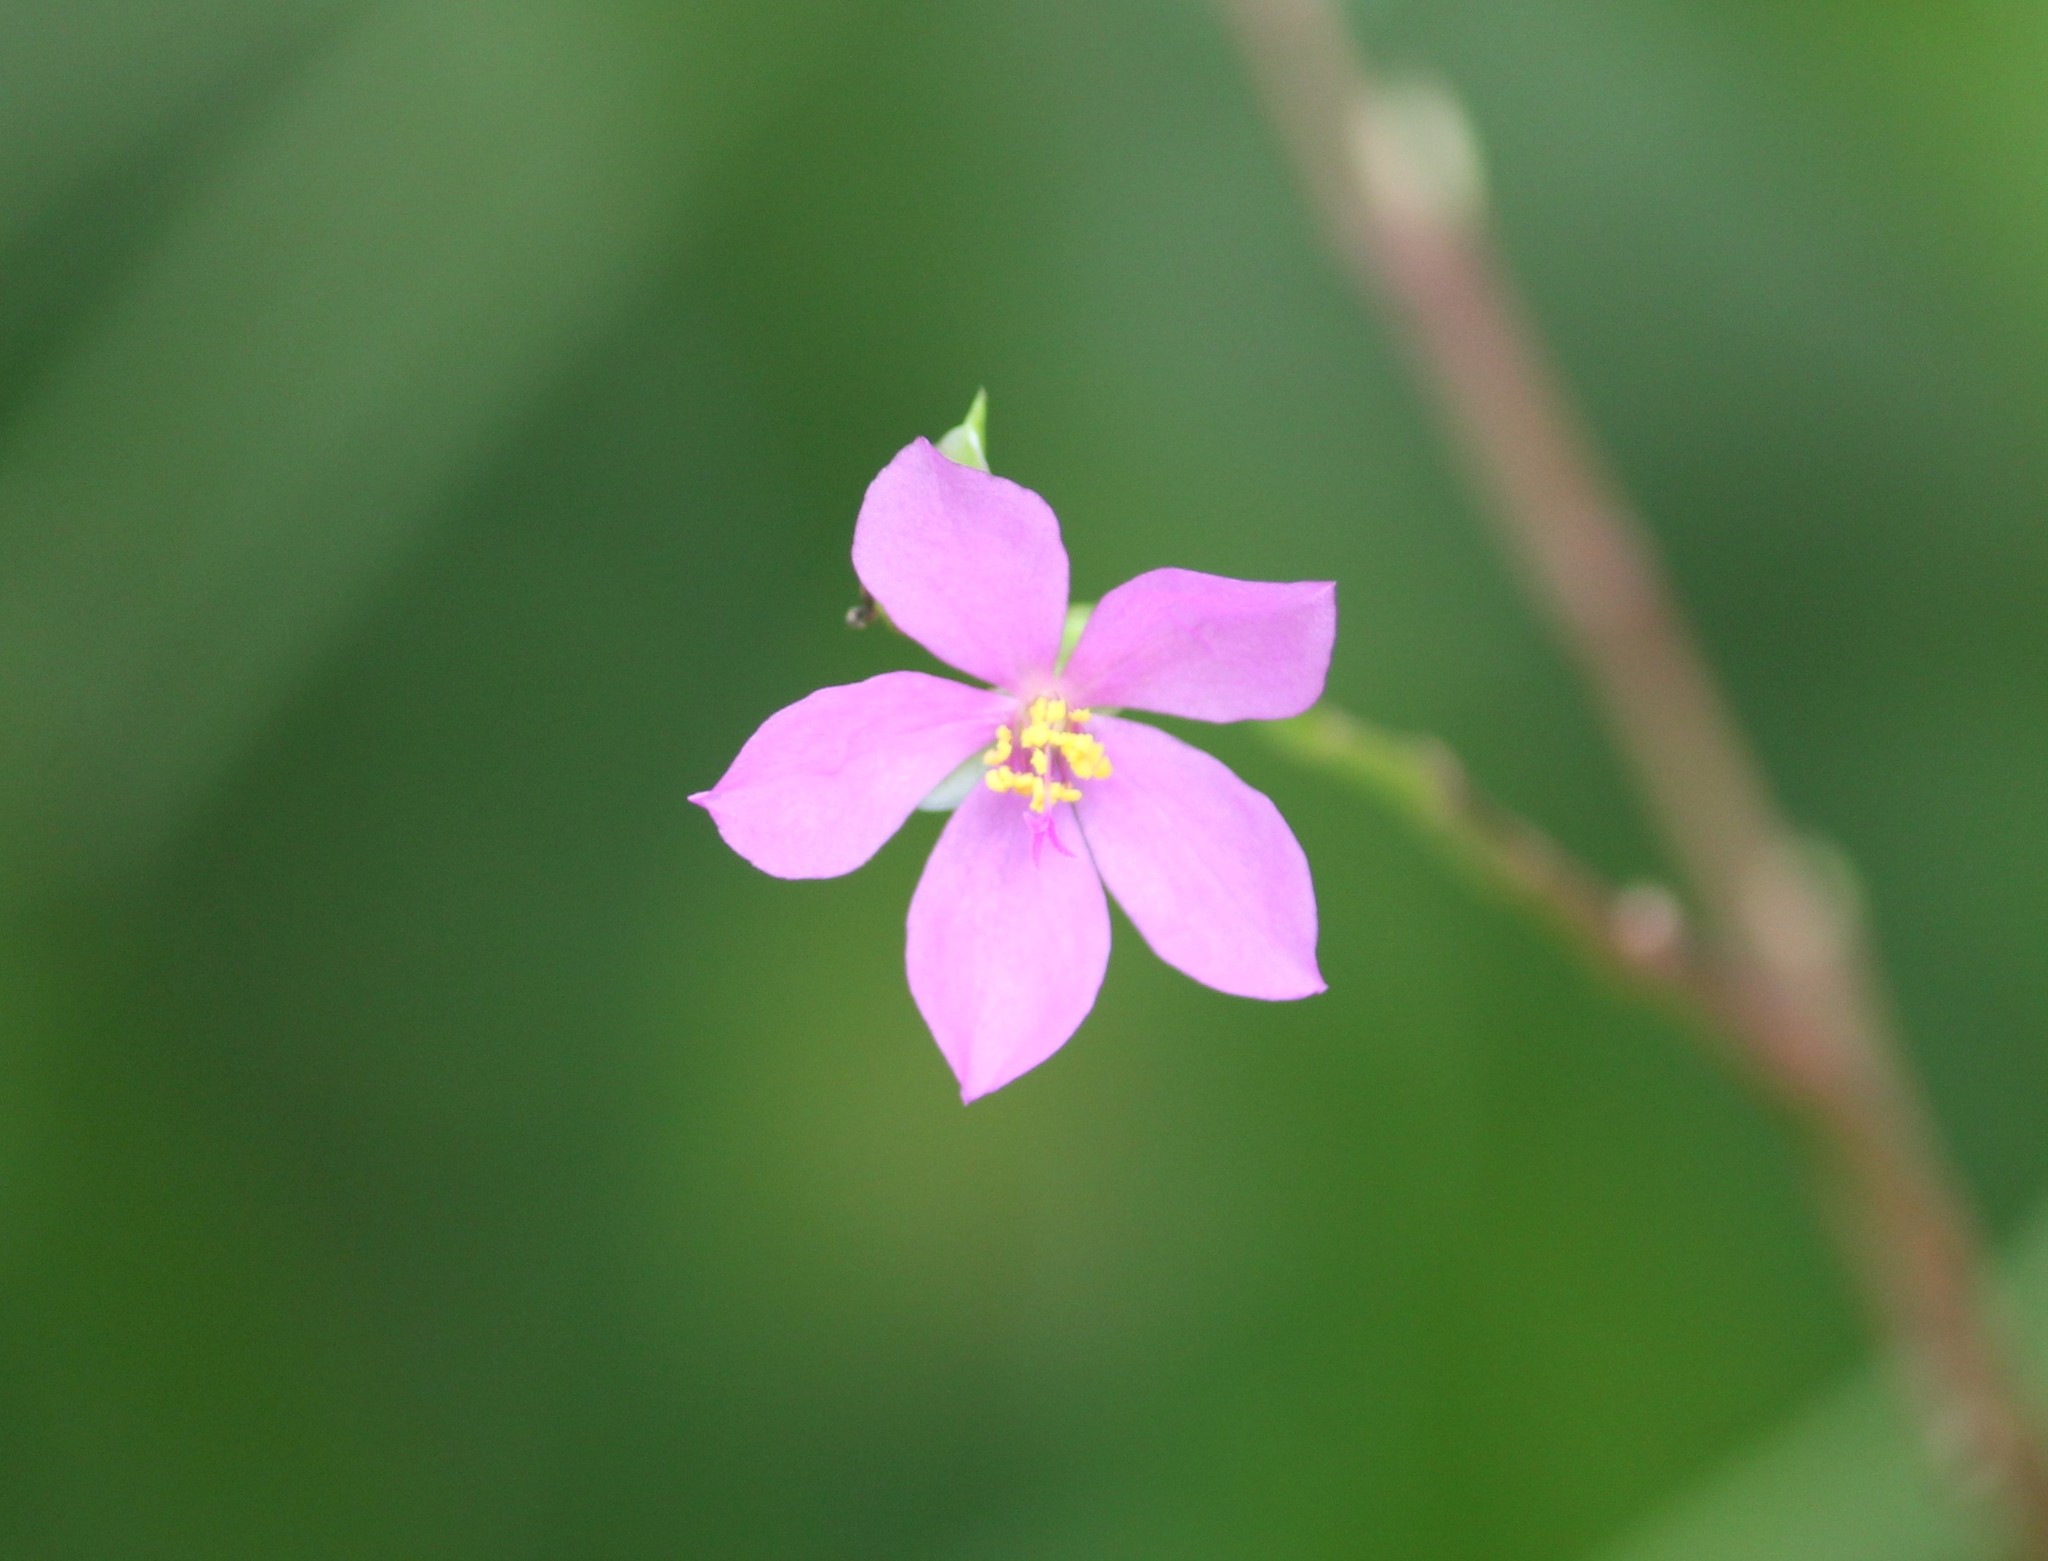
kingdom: Plantae
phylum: Tracheophyta
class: Magnoliopsida
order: Caryophyllales
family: Talinaceae
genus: Talinum
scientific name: Talinum fruticosum
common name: Verdolaga-francesa
